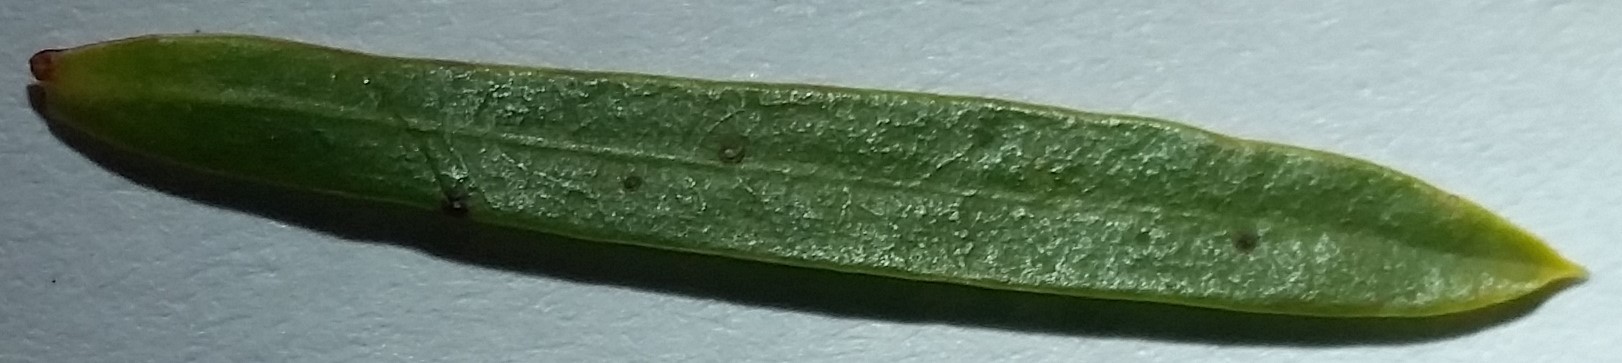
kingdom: Plantae
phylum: Tracheophyta
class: Magnoliopsida
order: Malpighiales
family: Euphorbiaceae
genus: Euphorbia
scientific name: Euphorbia cyparissias
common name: Cypress spurge
